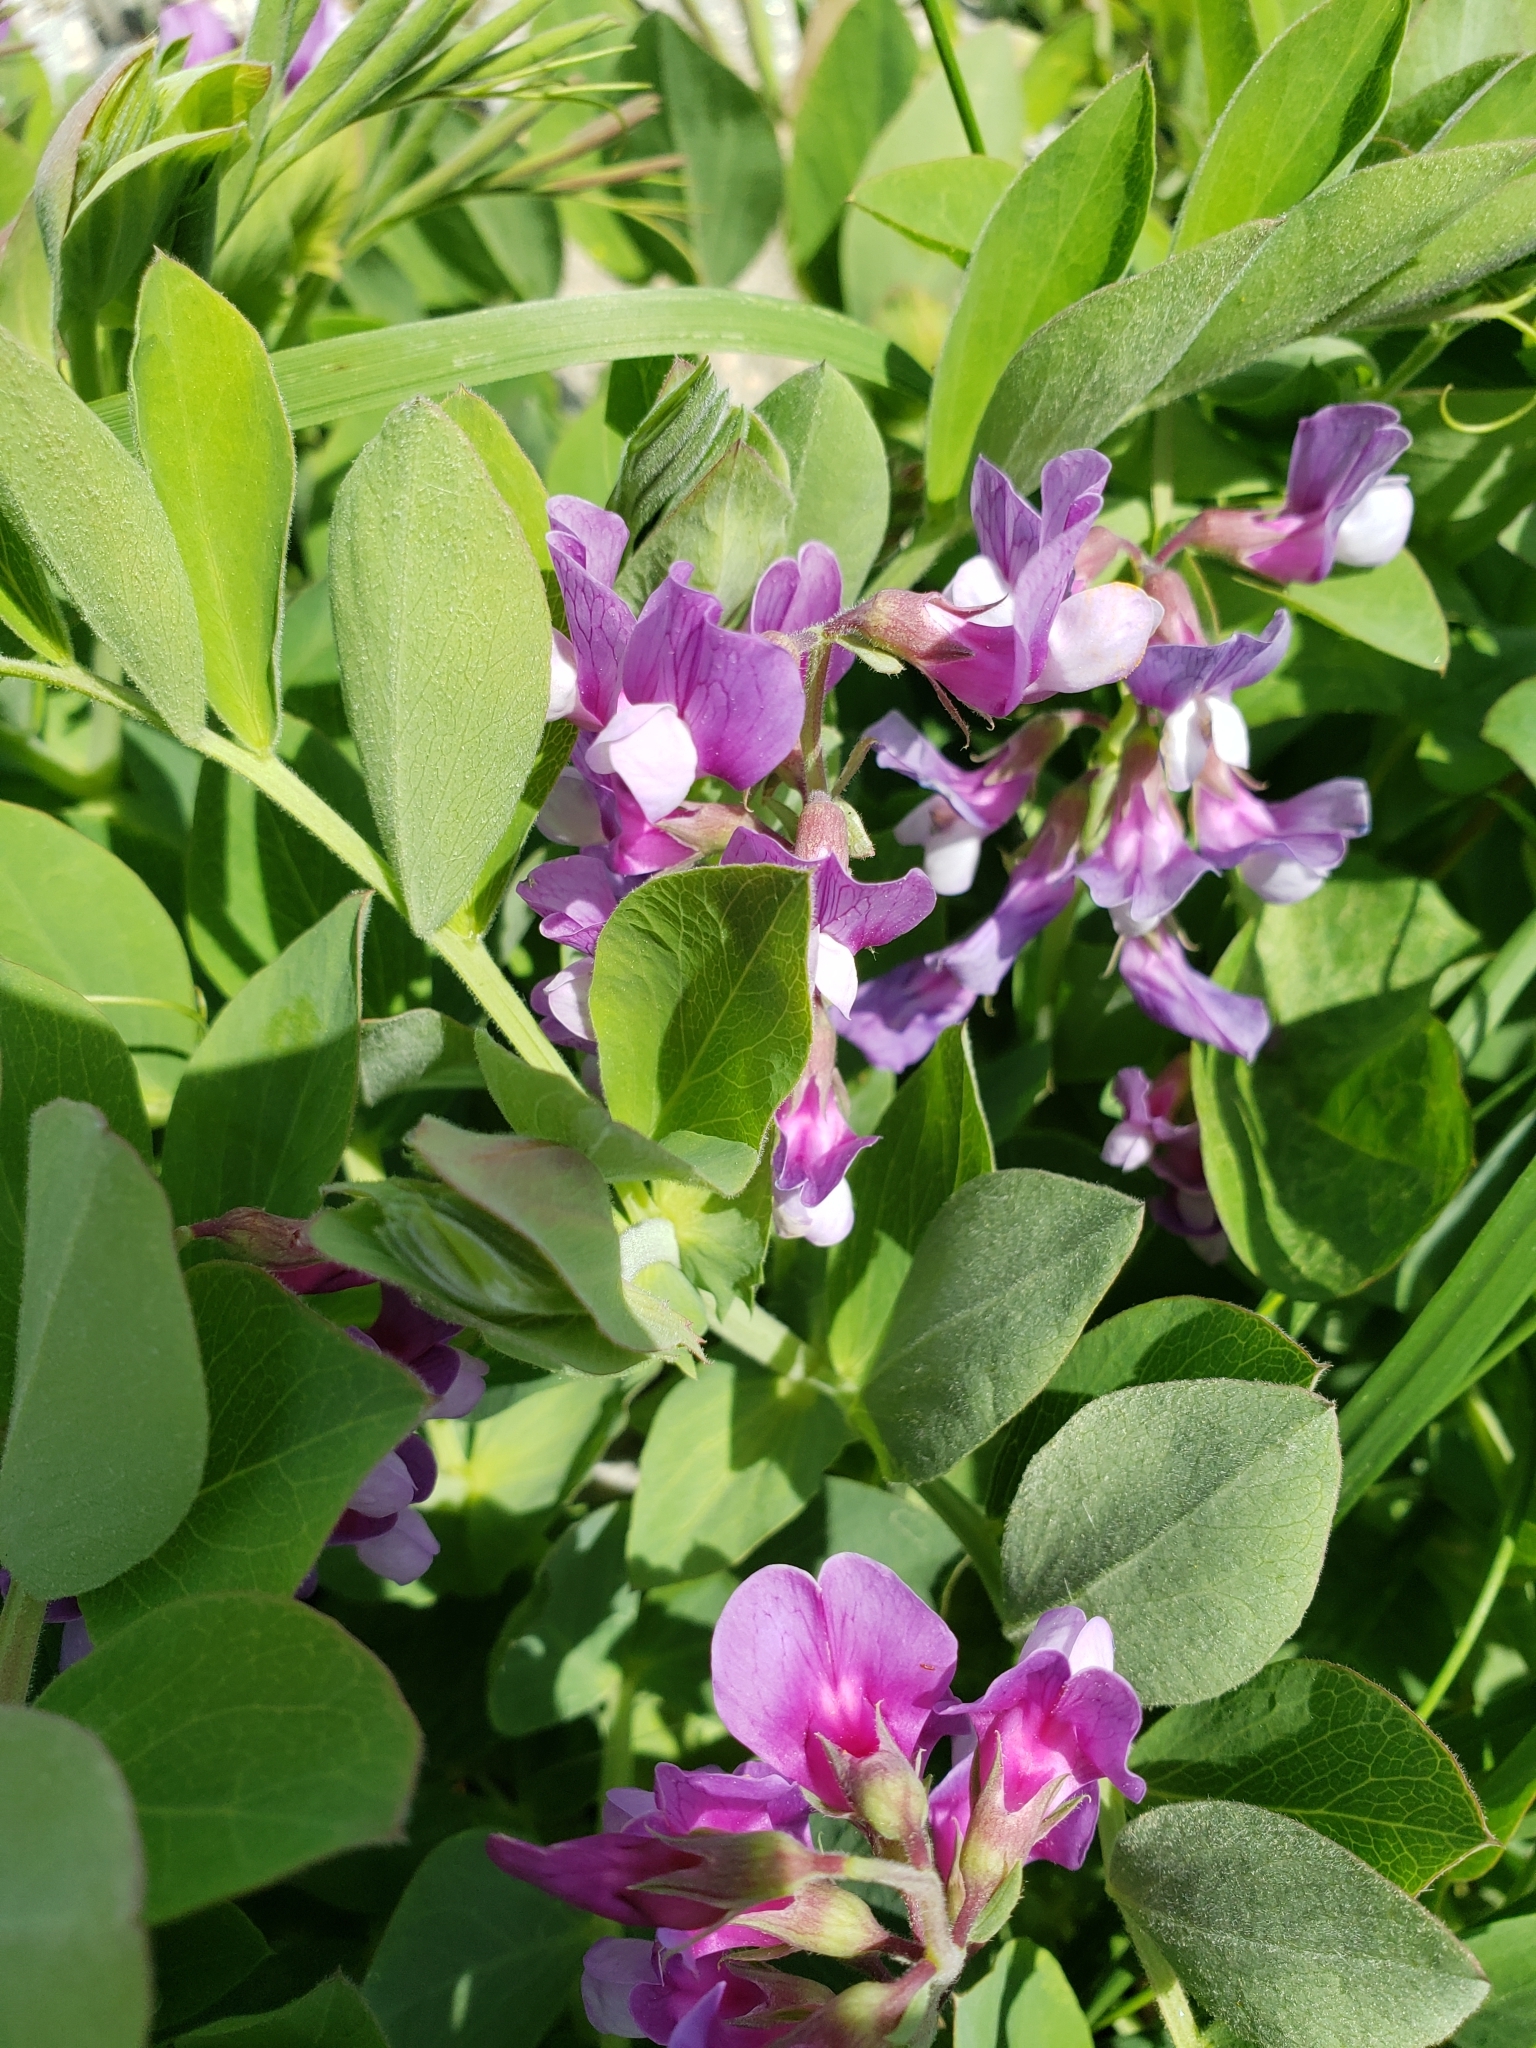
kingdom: Plantae
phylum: Tracheophyta
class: Magnoliopsida
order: Fabales
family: Fabaceae
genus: Lathyrus
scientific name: Lathyrus japonicus
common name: Sea pea
